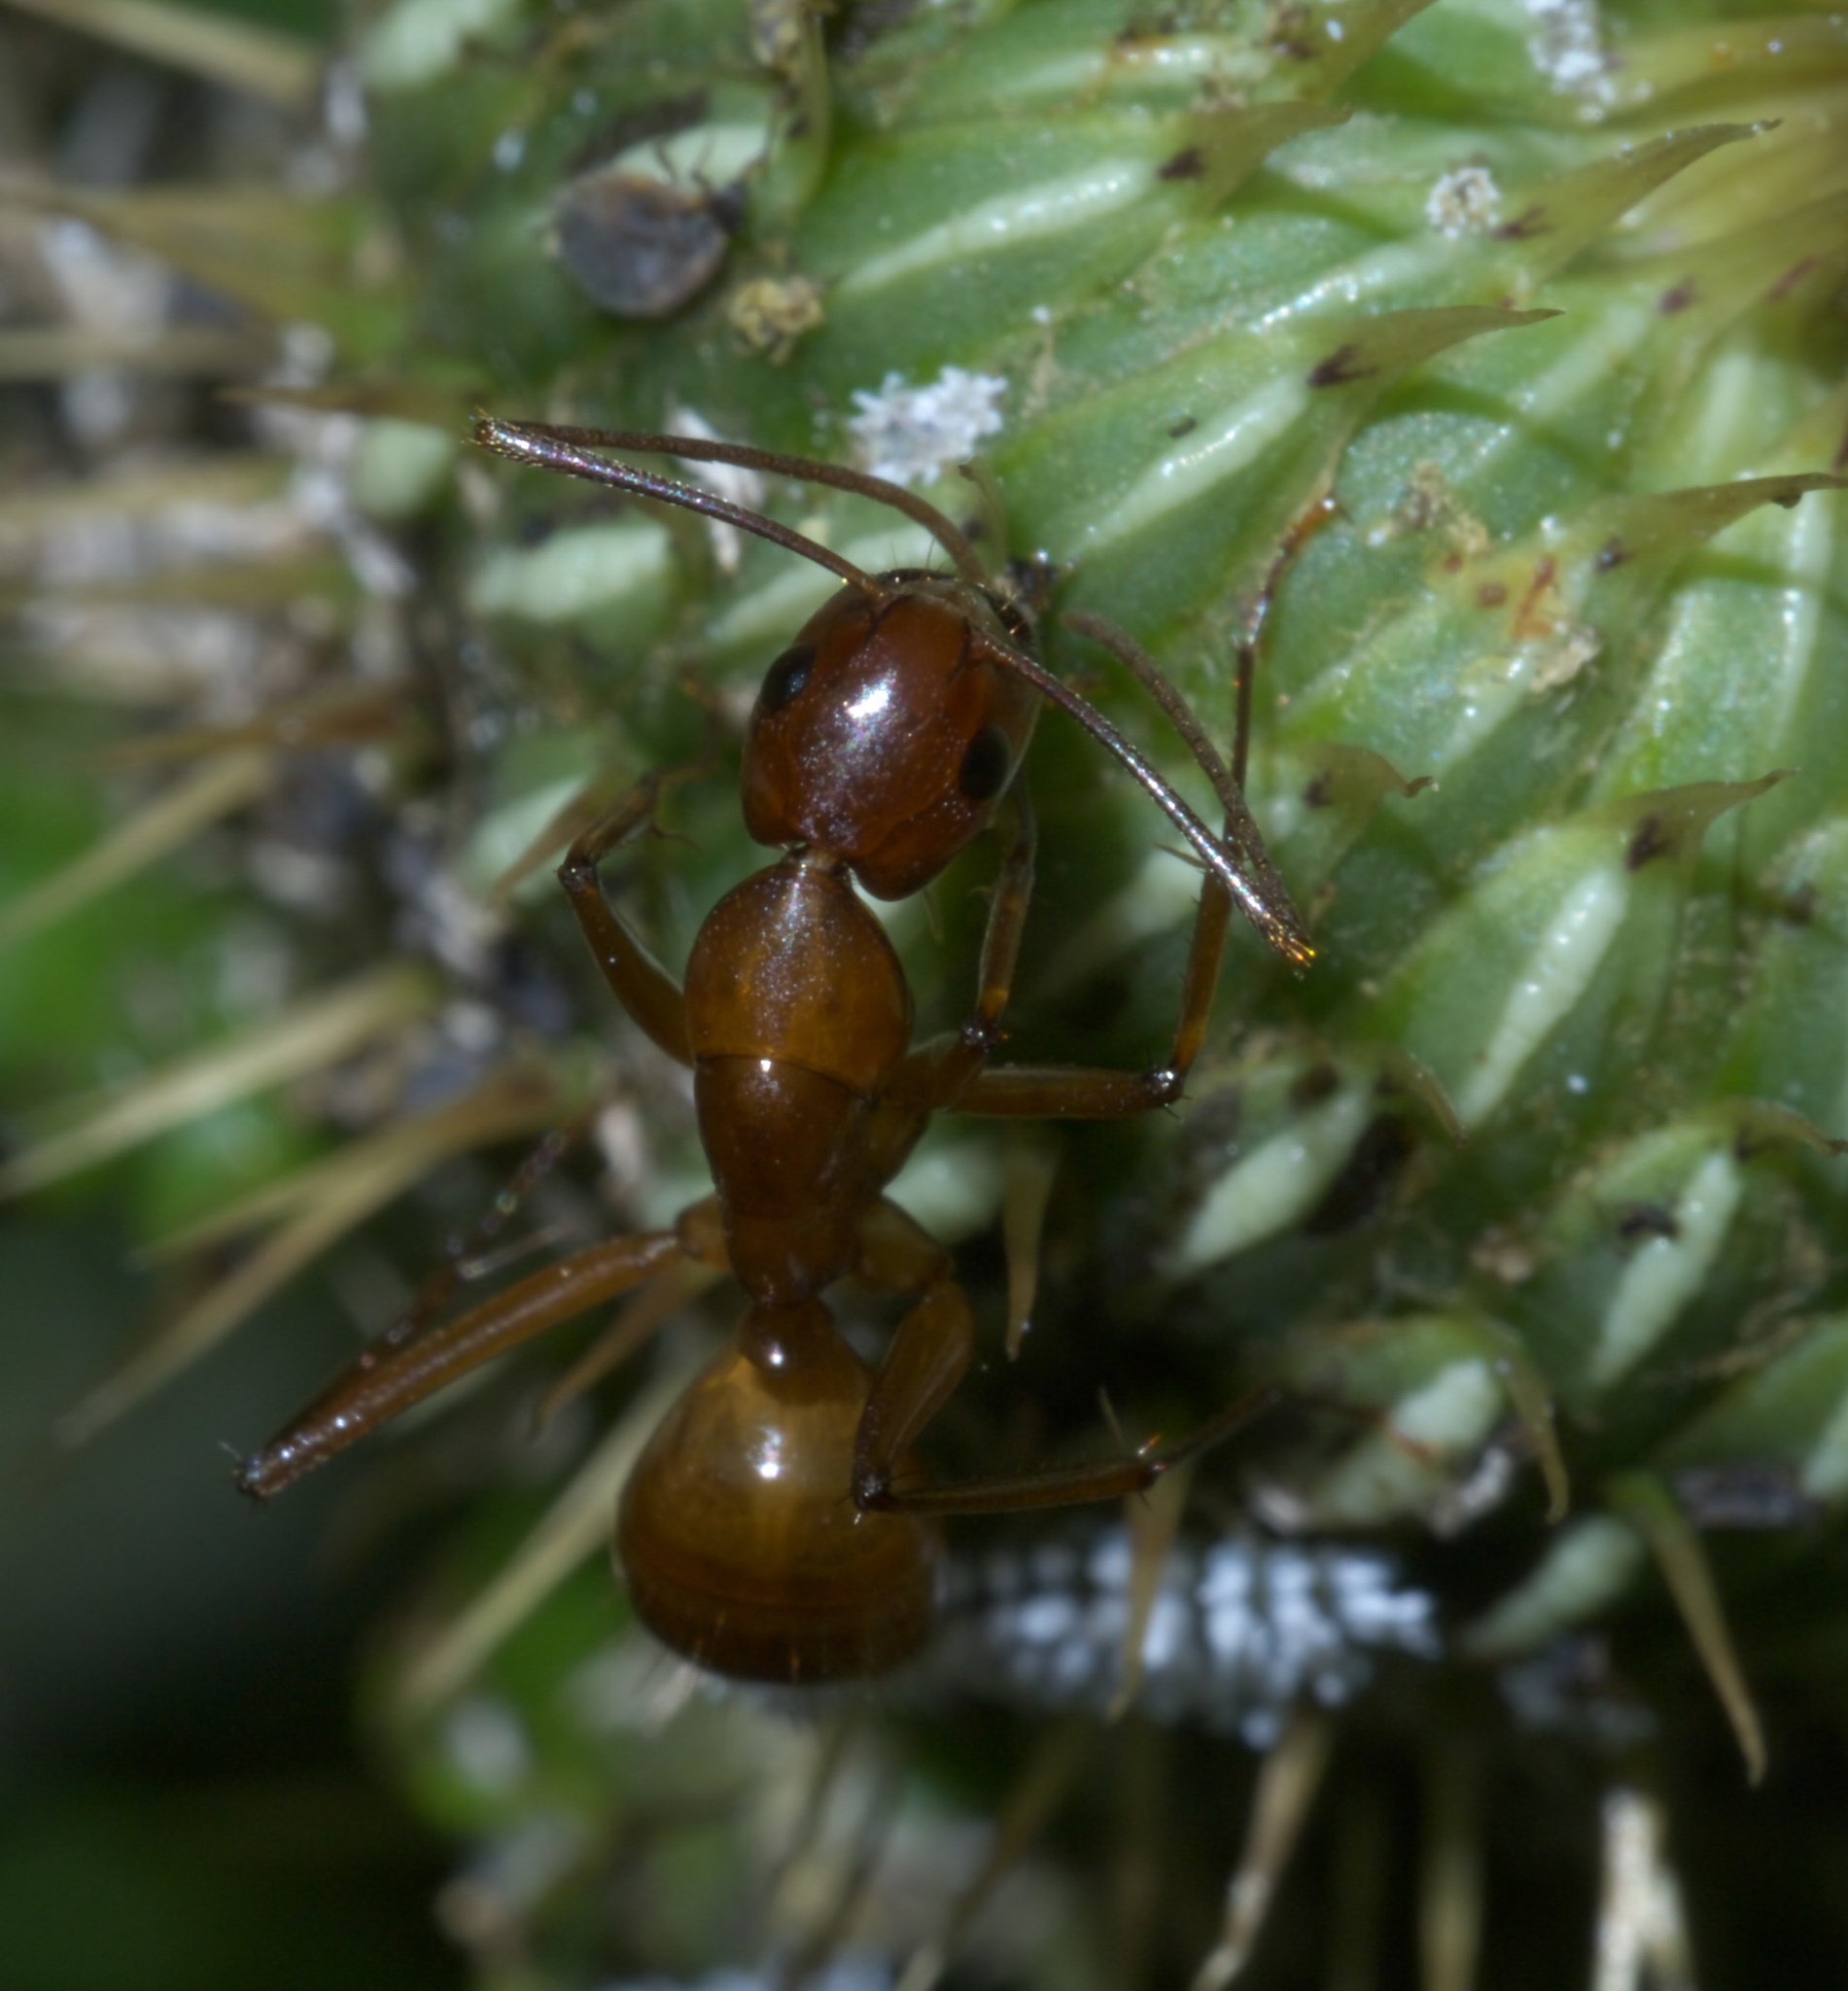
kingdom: Animalia
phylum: Arthropoda
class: Insecta
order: Hymenoptera
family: Formicidae
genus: Camponotus
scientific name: Camponotus castaneus
